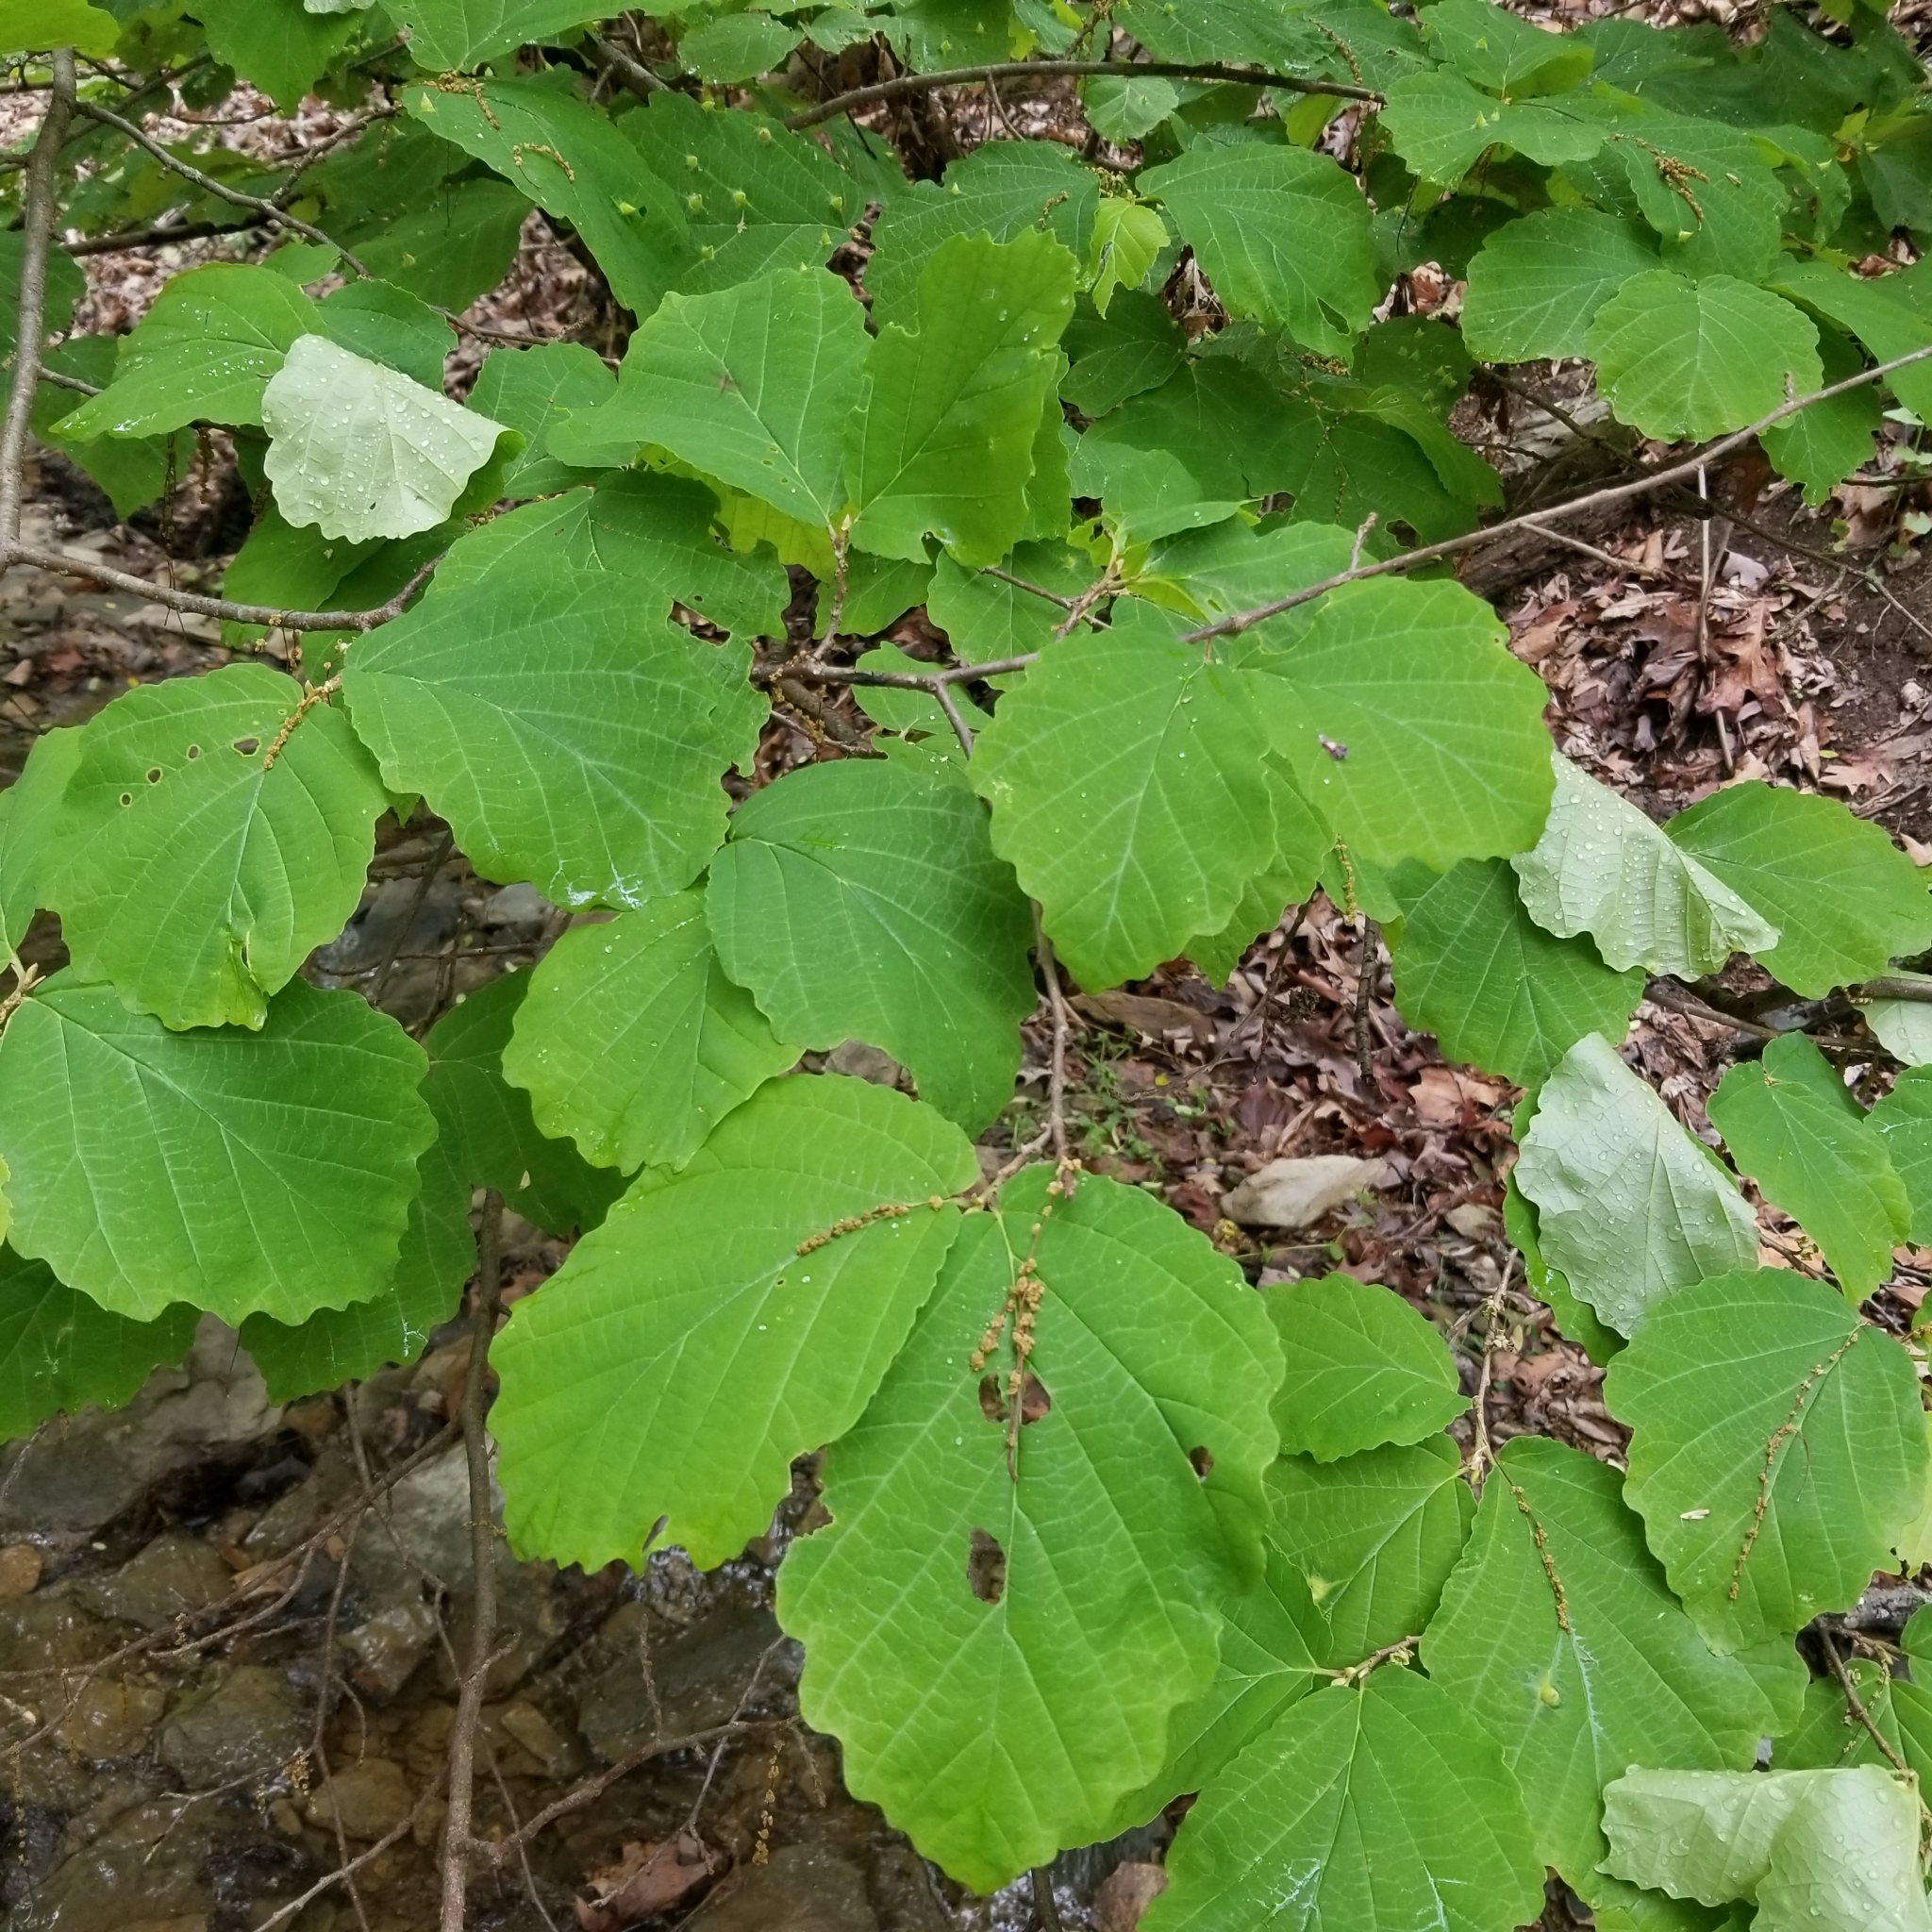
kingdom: Plantae
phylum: Tracheophyta
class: Magnoliopsida
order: Saxifragales
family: Hamamelidaceae
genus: Hamamelis
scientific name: Hamamelis virginiana
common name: Witch-hazel
